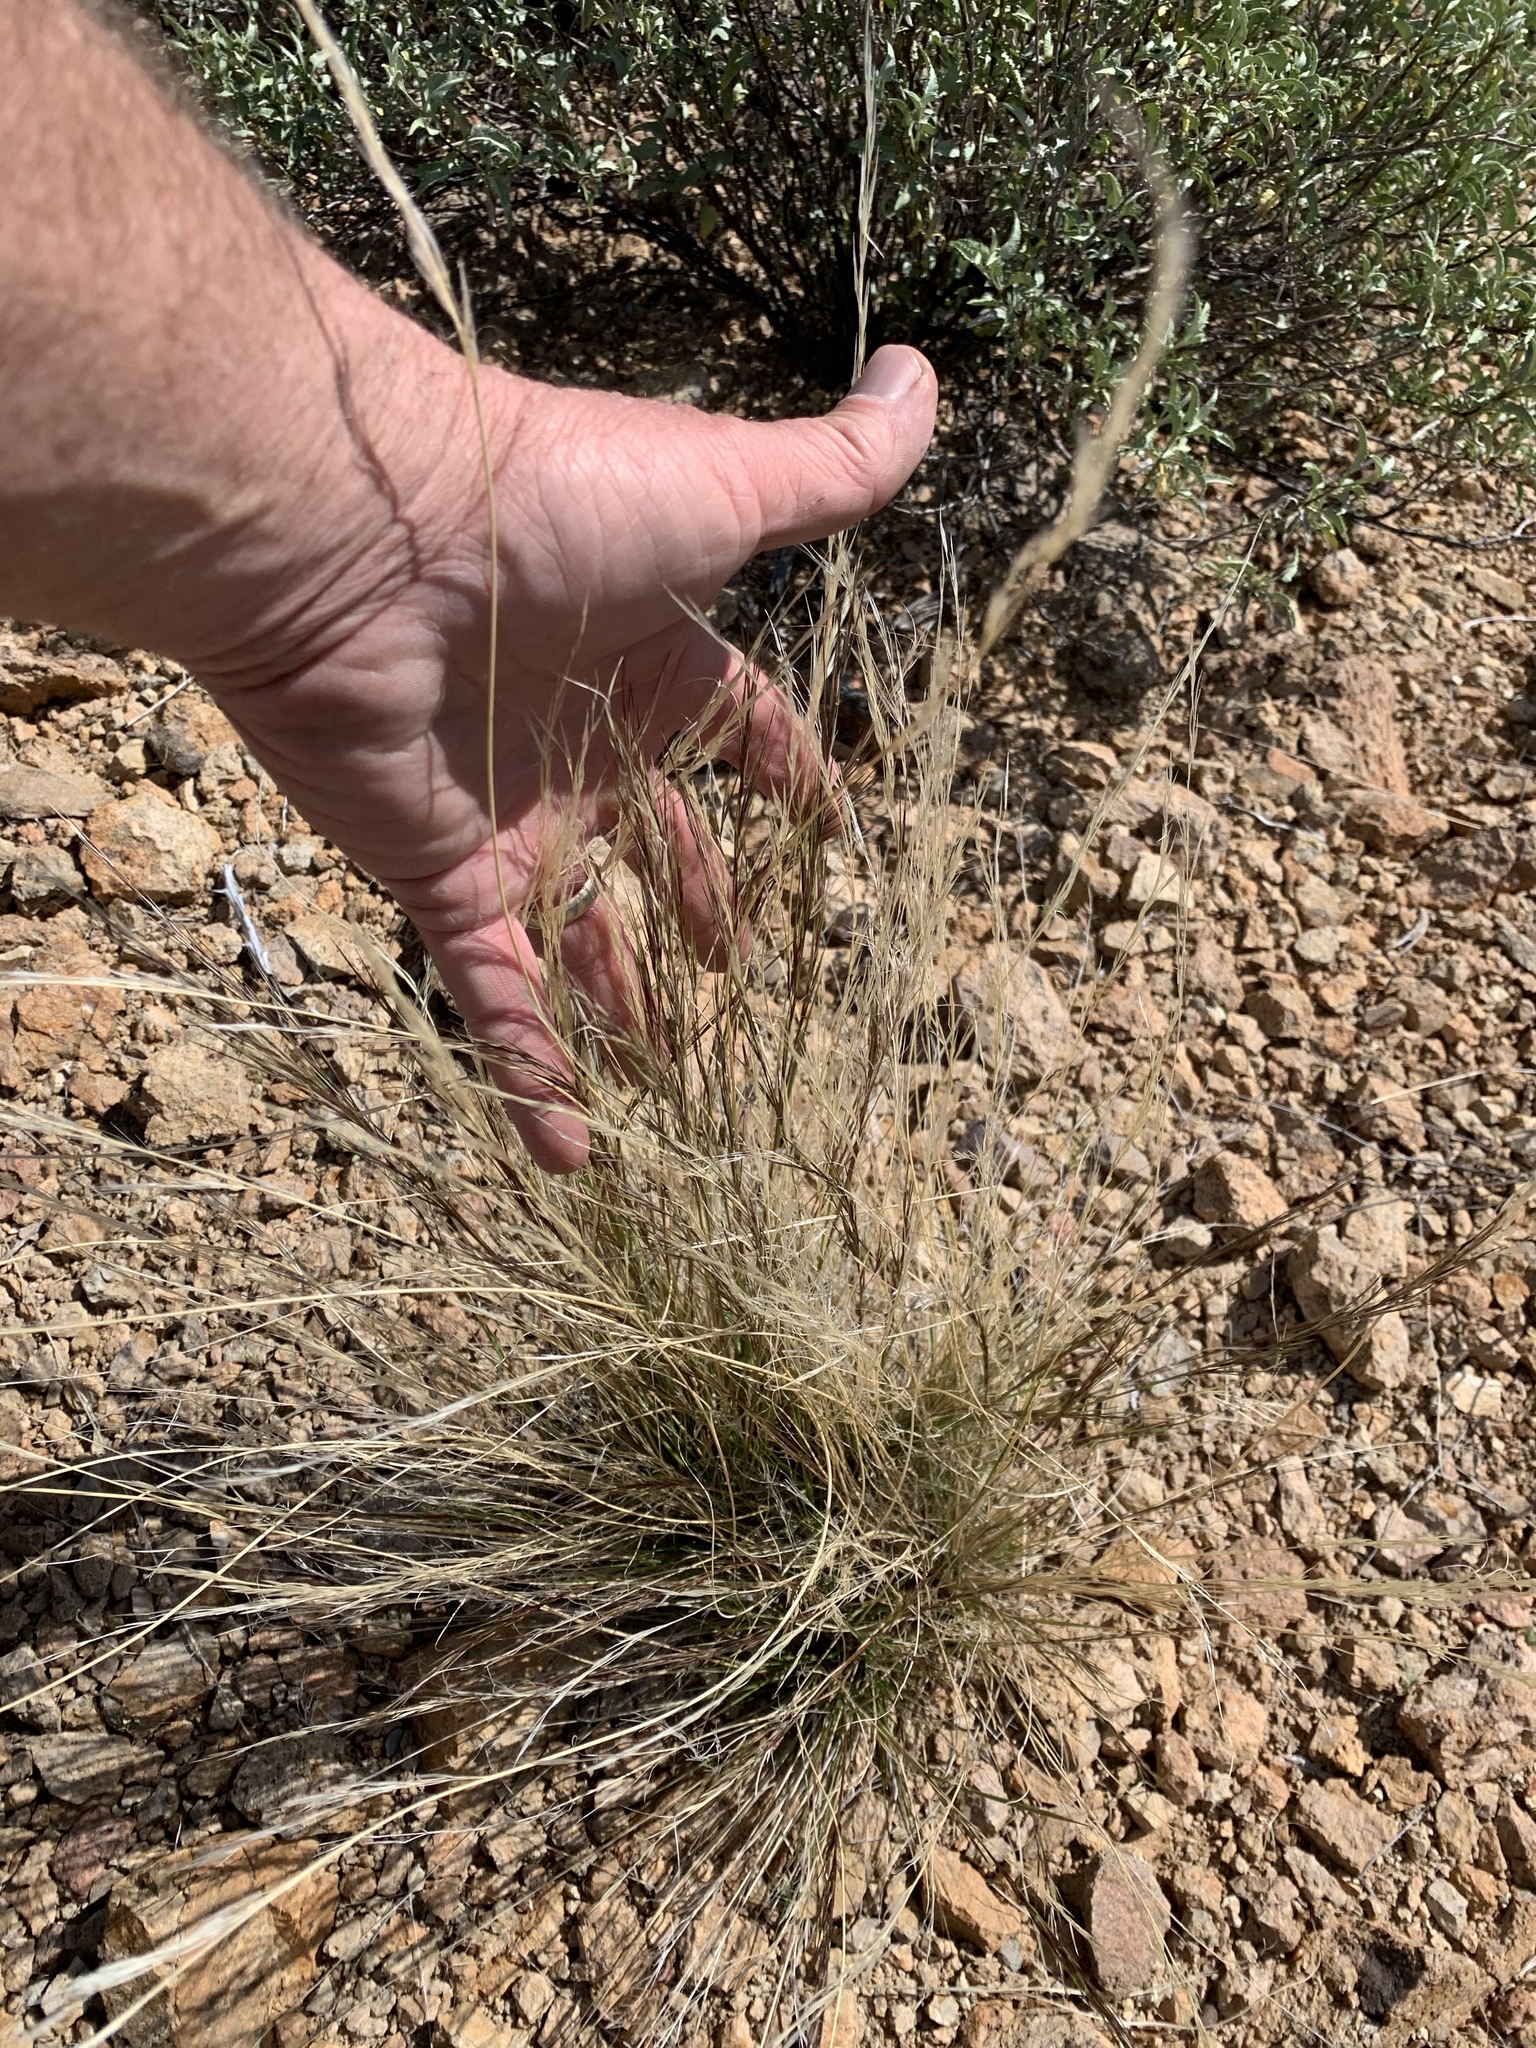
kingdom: Plantae
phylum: Tracheophyta
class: Liliopsida
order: Poales
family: Poaceae
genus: Aristida
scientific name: Aristida purpurea
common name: Purple threeawn
